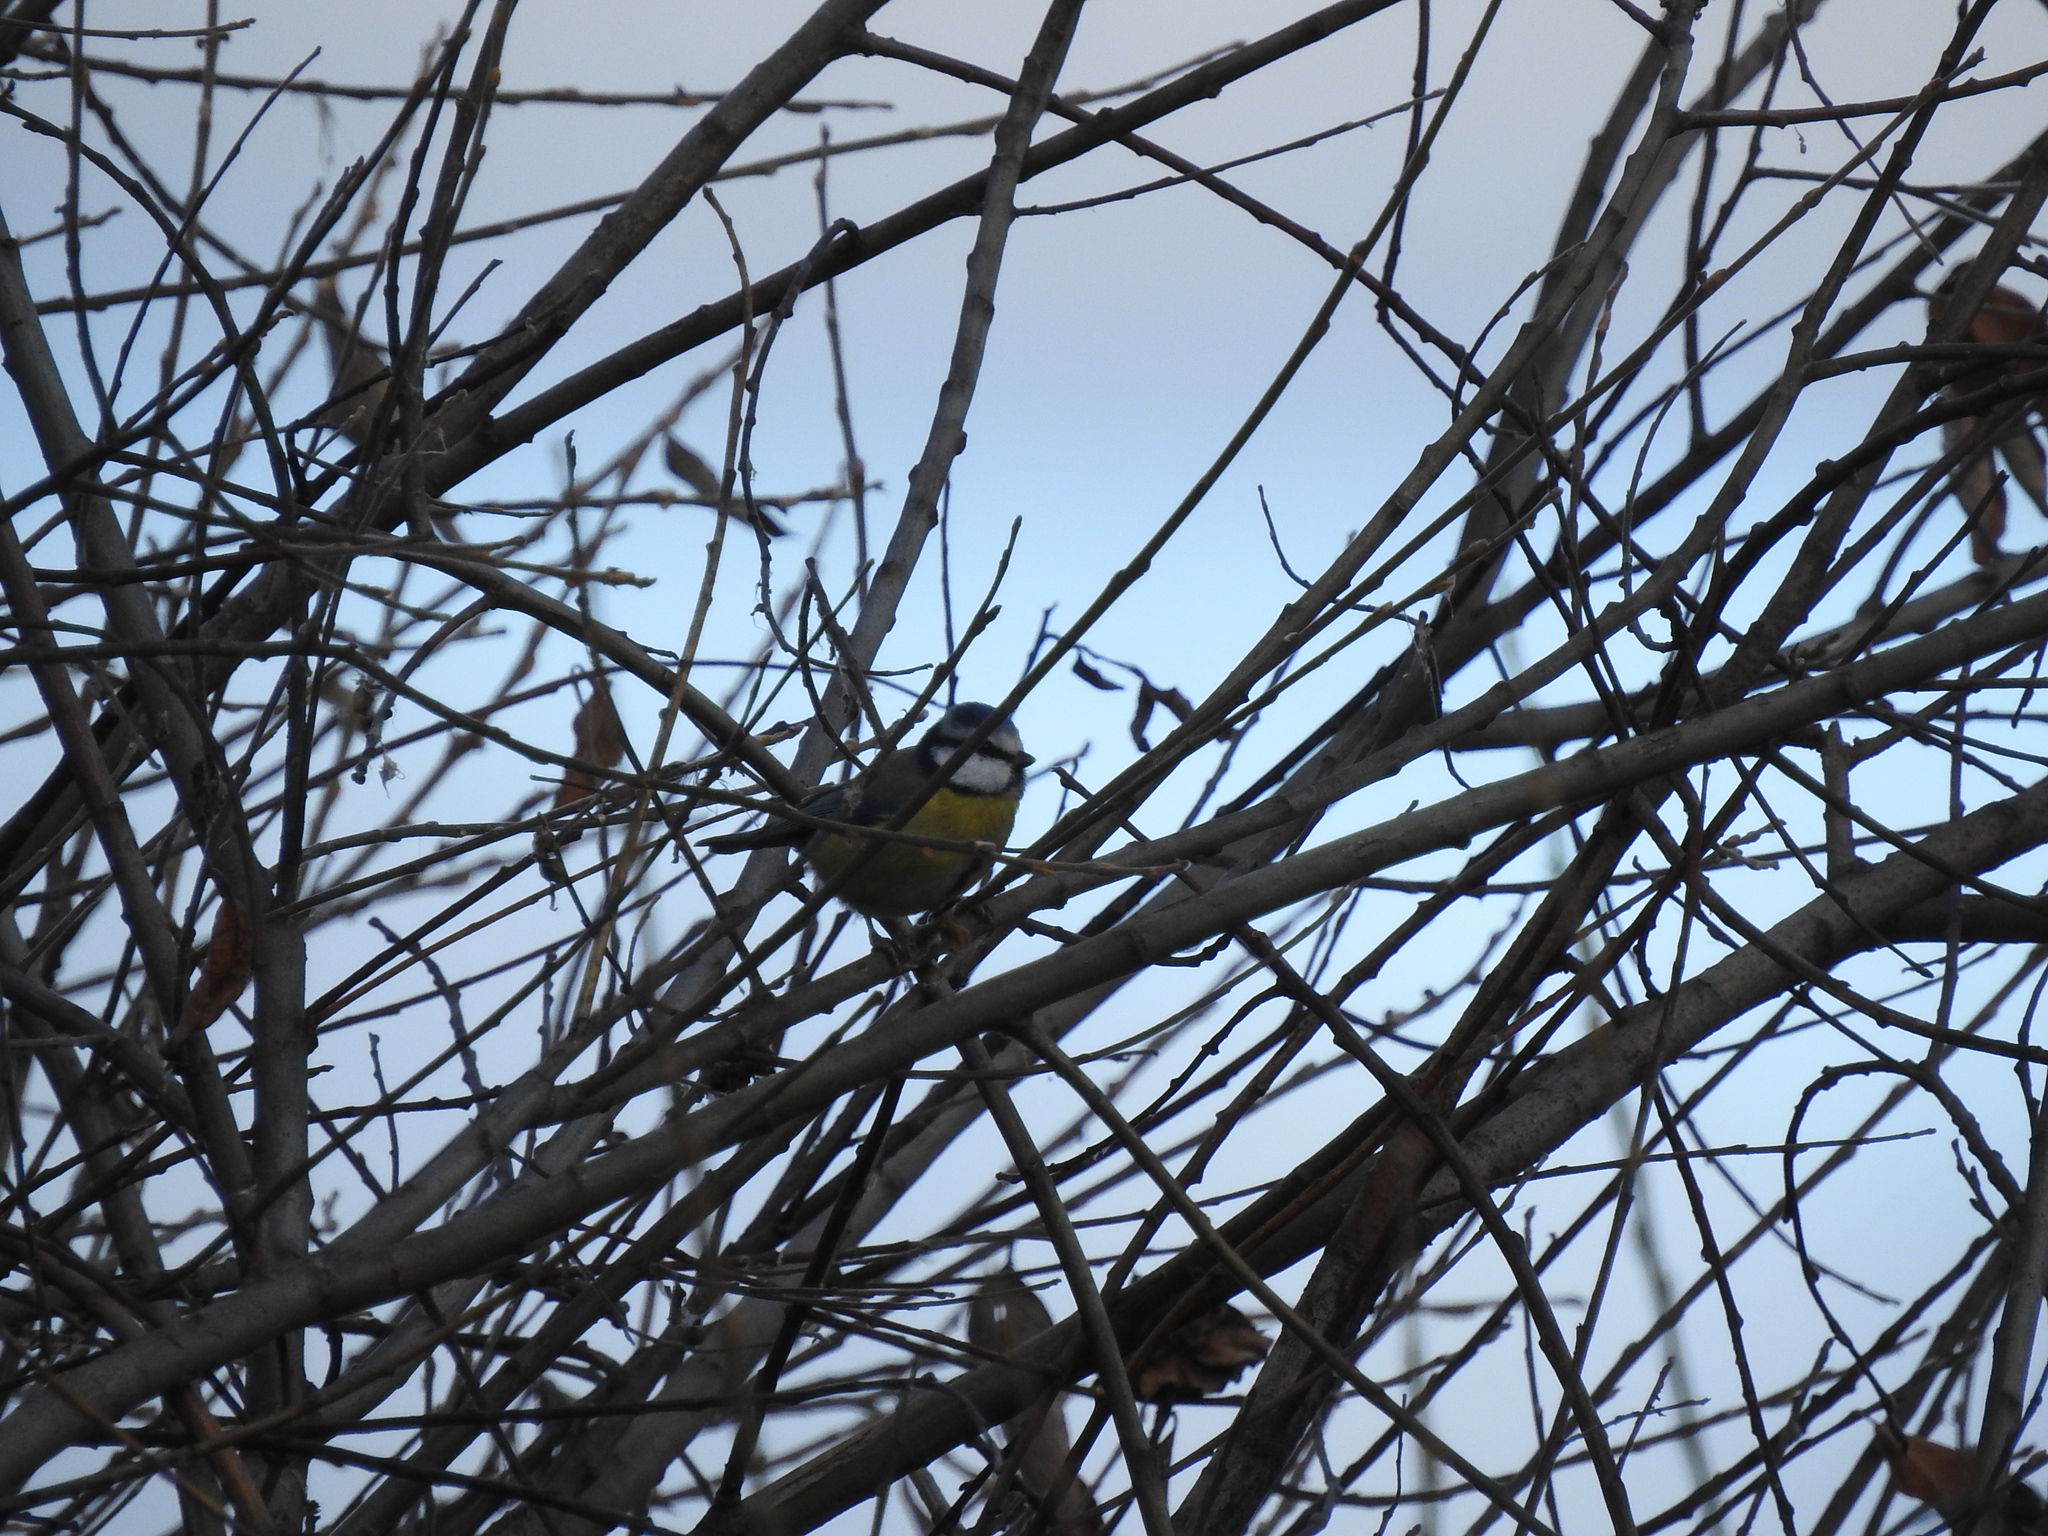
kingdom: Animalia
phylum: Chordata
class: Aves
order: Passeriformes
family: Paridae
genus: Cyanistes
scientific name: Cyanistes caeruleus
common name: Eurasian blue tit
